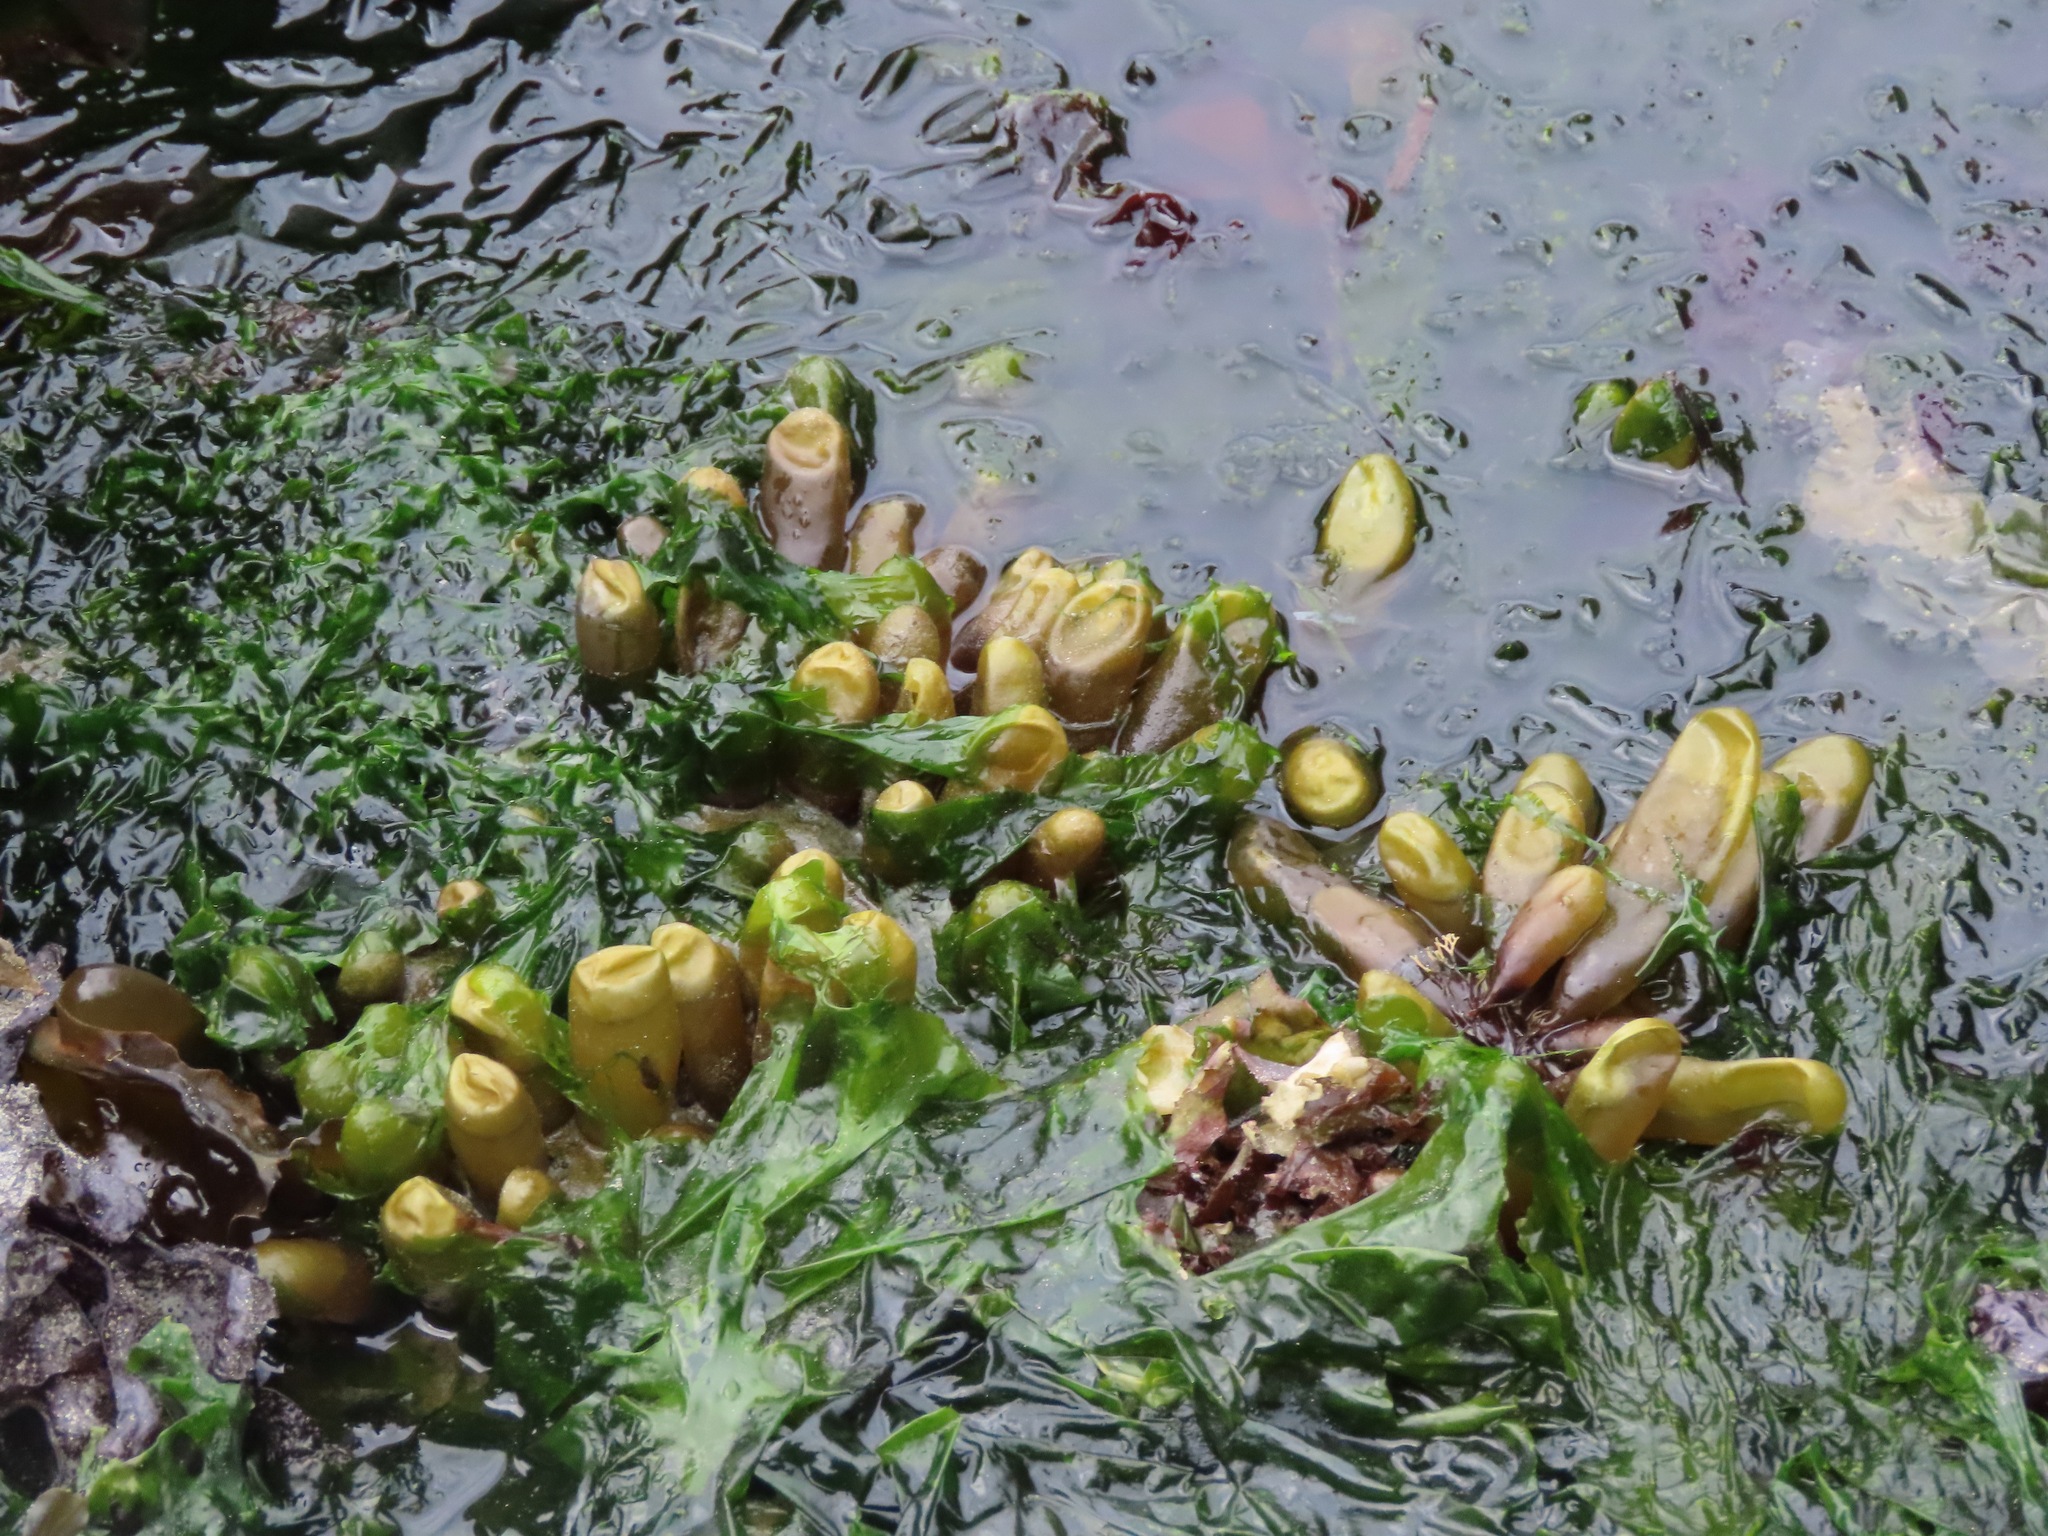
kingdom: Plantae
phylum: Rhodophyta
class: Florideophyceae
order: Palmariales
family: Palmariaceae
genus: Halosaccion
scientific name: Halosaccion glandiforme
